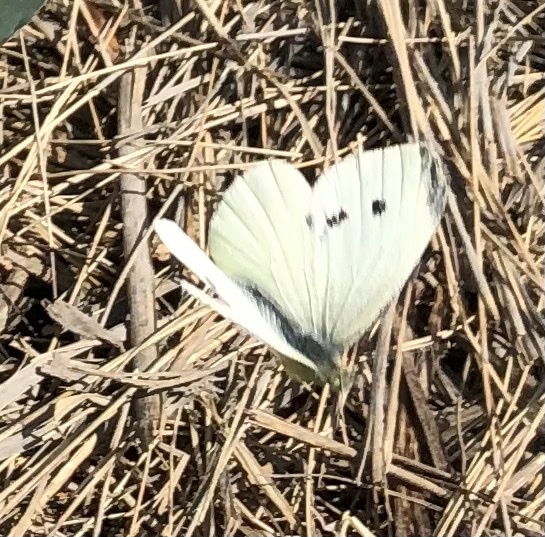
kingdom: Animalia
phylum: Arthropoda
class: Insecta
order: Lepidoptera
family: Pieridae
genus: Pieris
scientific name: Pieris rapae
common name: Small white
